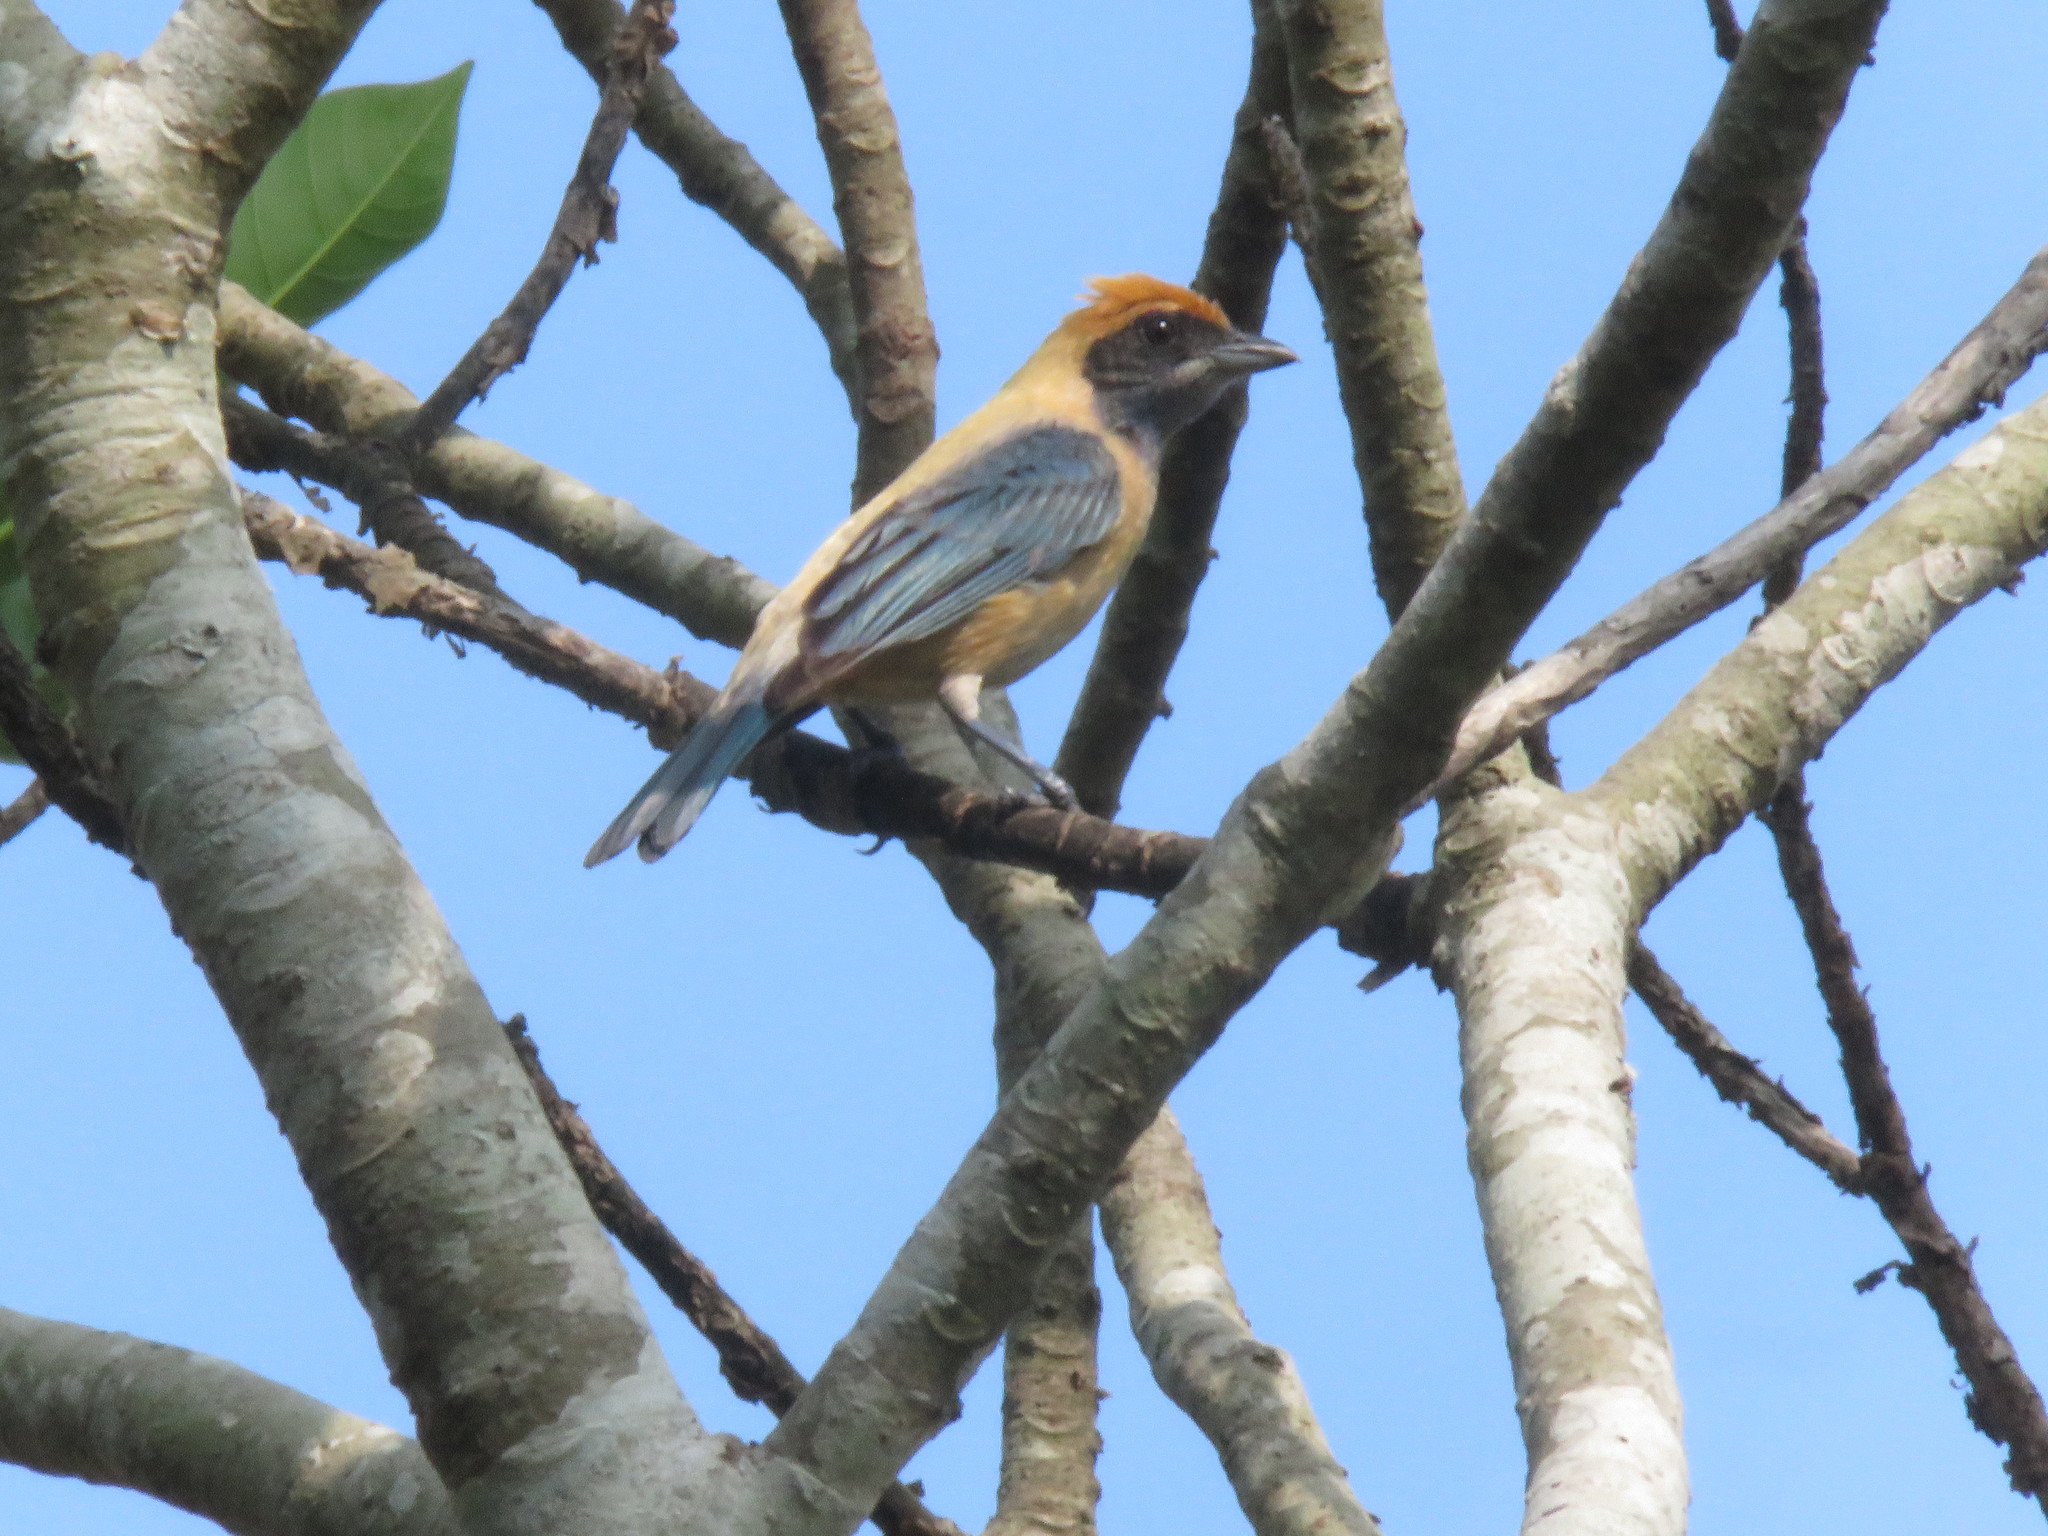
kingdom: Animalia
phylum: Chordata
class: Aves
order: Passeriformes
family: Thraupidae
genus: Stilpnia
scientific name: Stilpnia cayana
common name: Burnished-buff tanager
